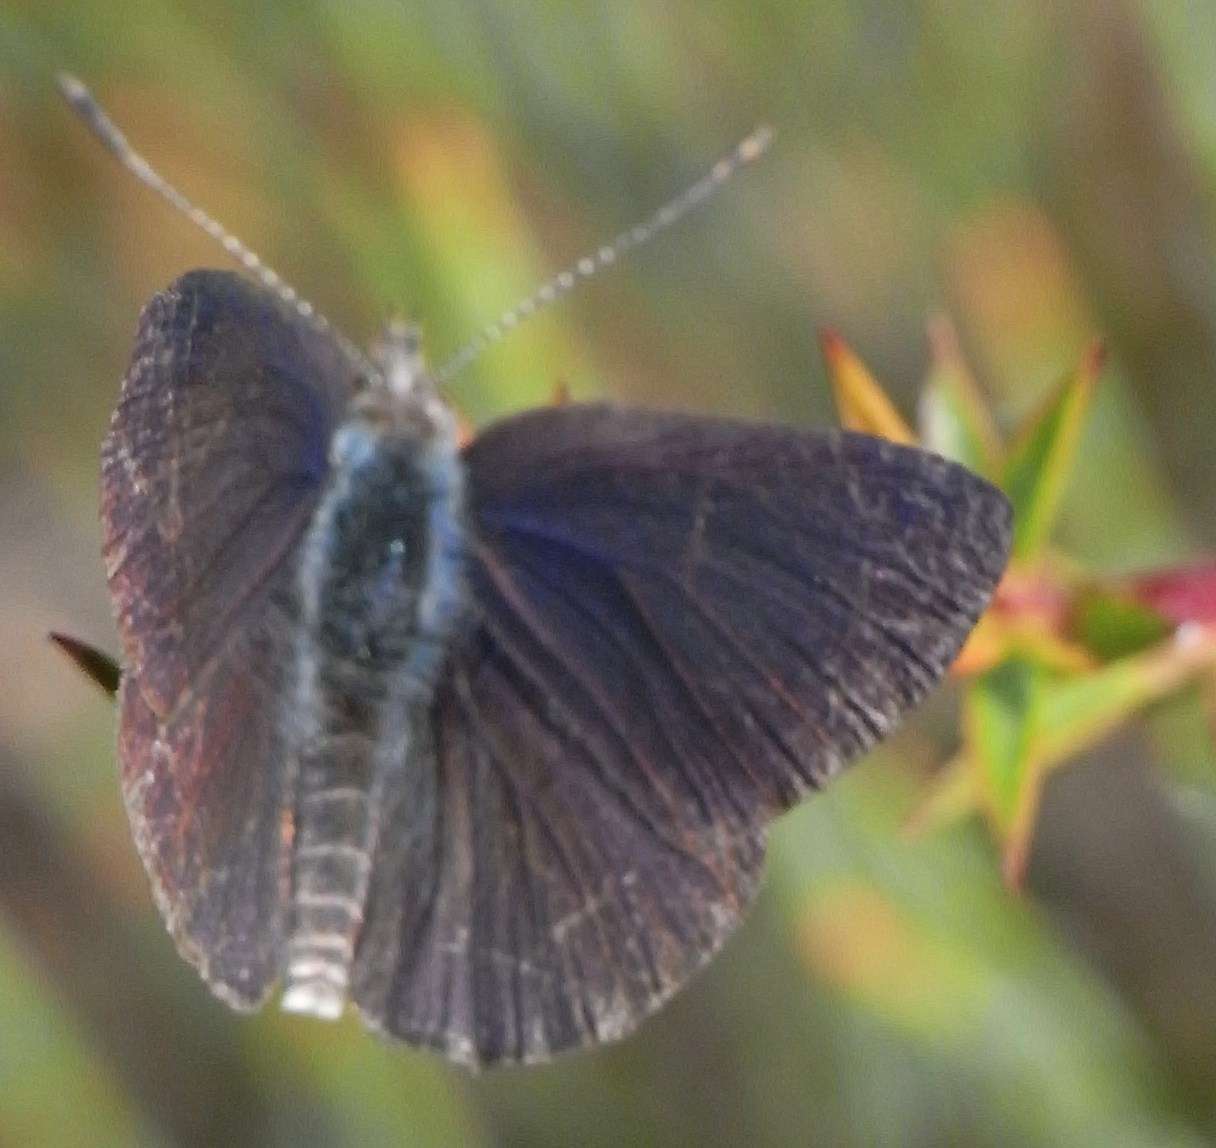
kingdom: Animalia
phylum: Arthropoda
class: Insecta
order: Lepidoptera
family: Lycaenidae
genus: Candalides
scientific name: Candalides
